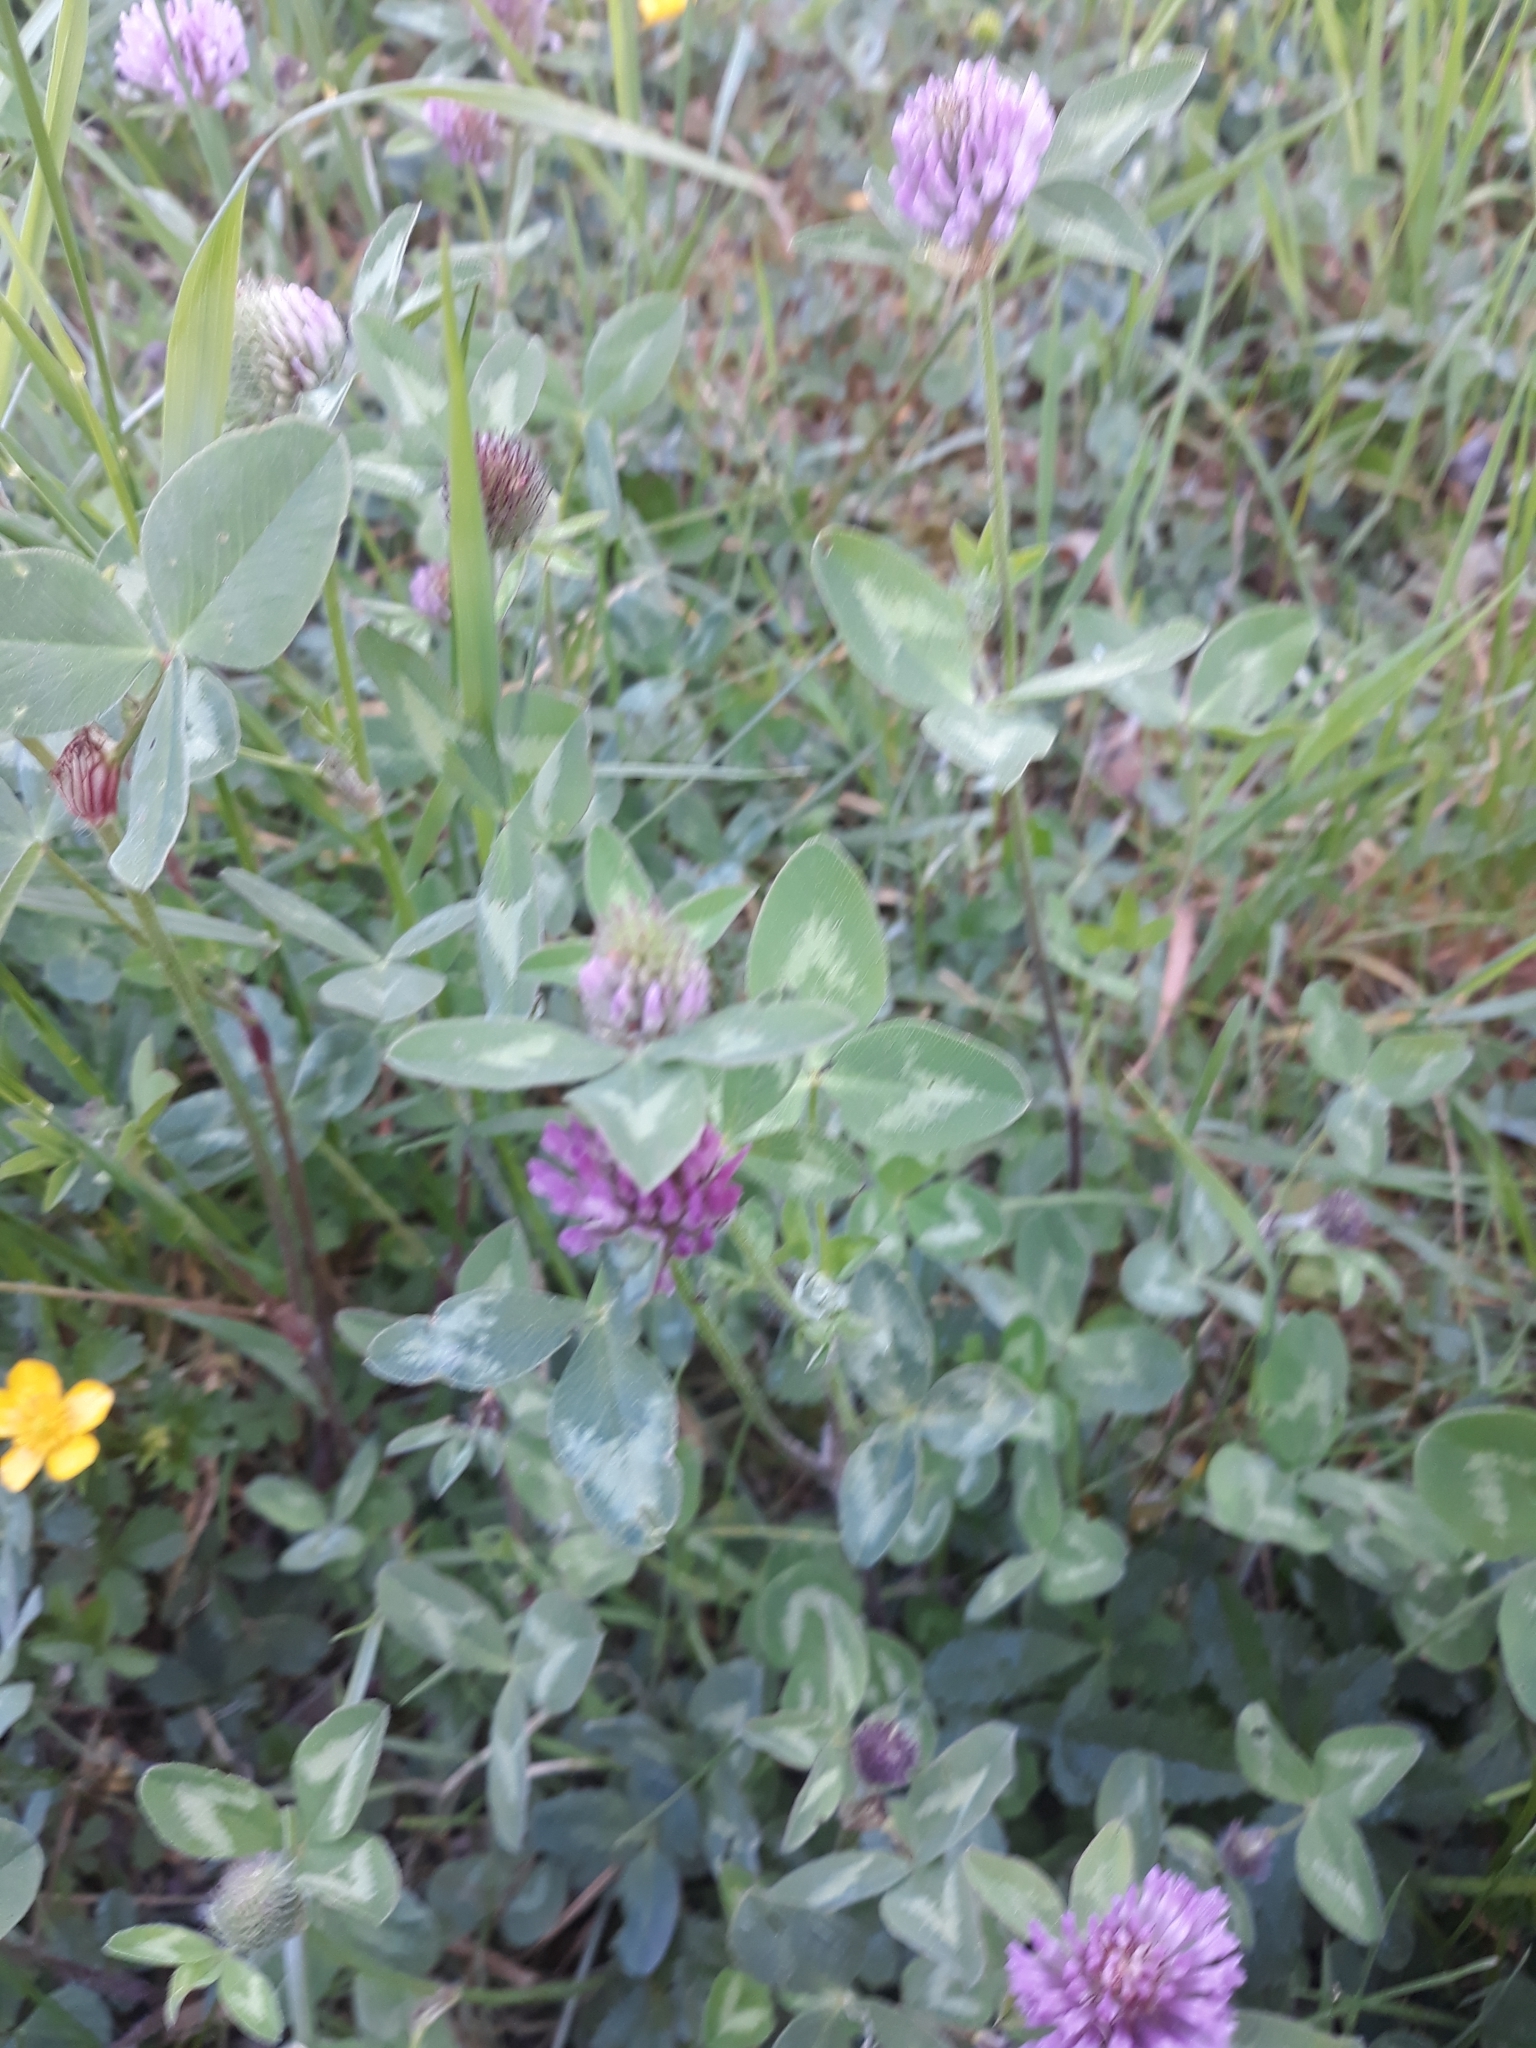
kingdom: Plantae
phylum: Tracheophyta
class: Magnoliopsida
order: Fabales
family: Fabaceae
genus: Trifolium
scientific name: Trifolium pratense
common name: Red clover
